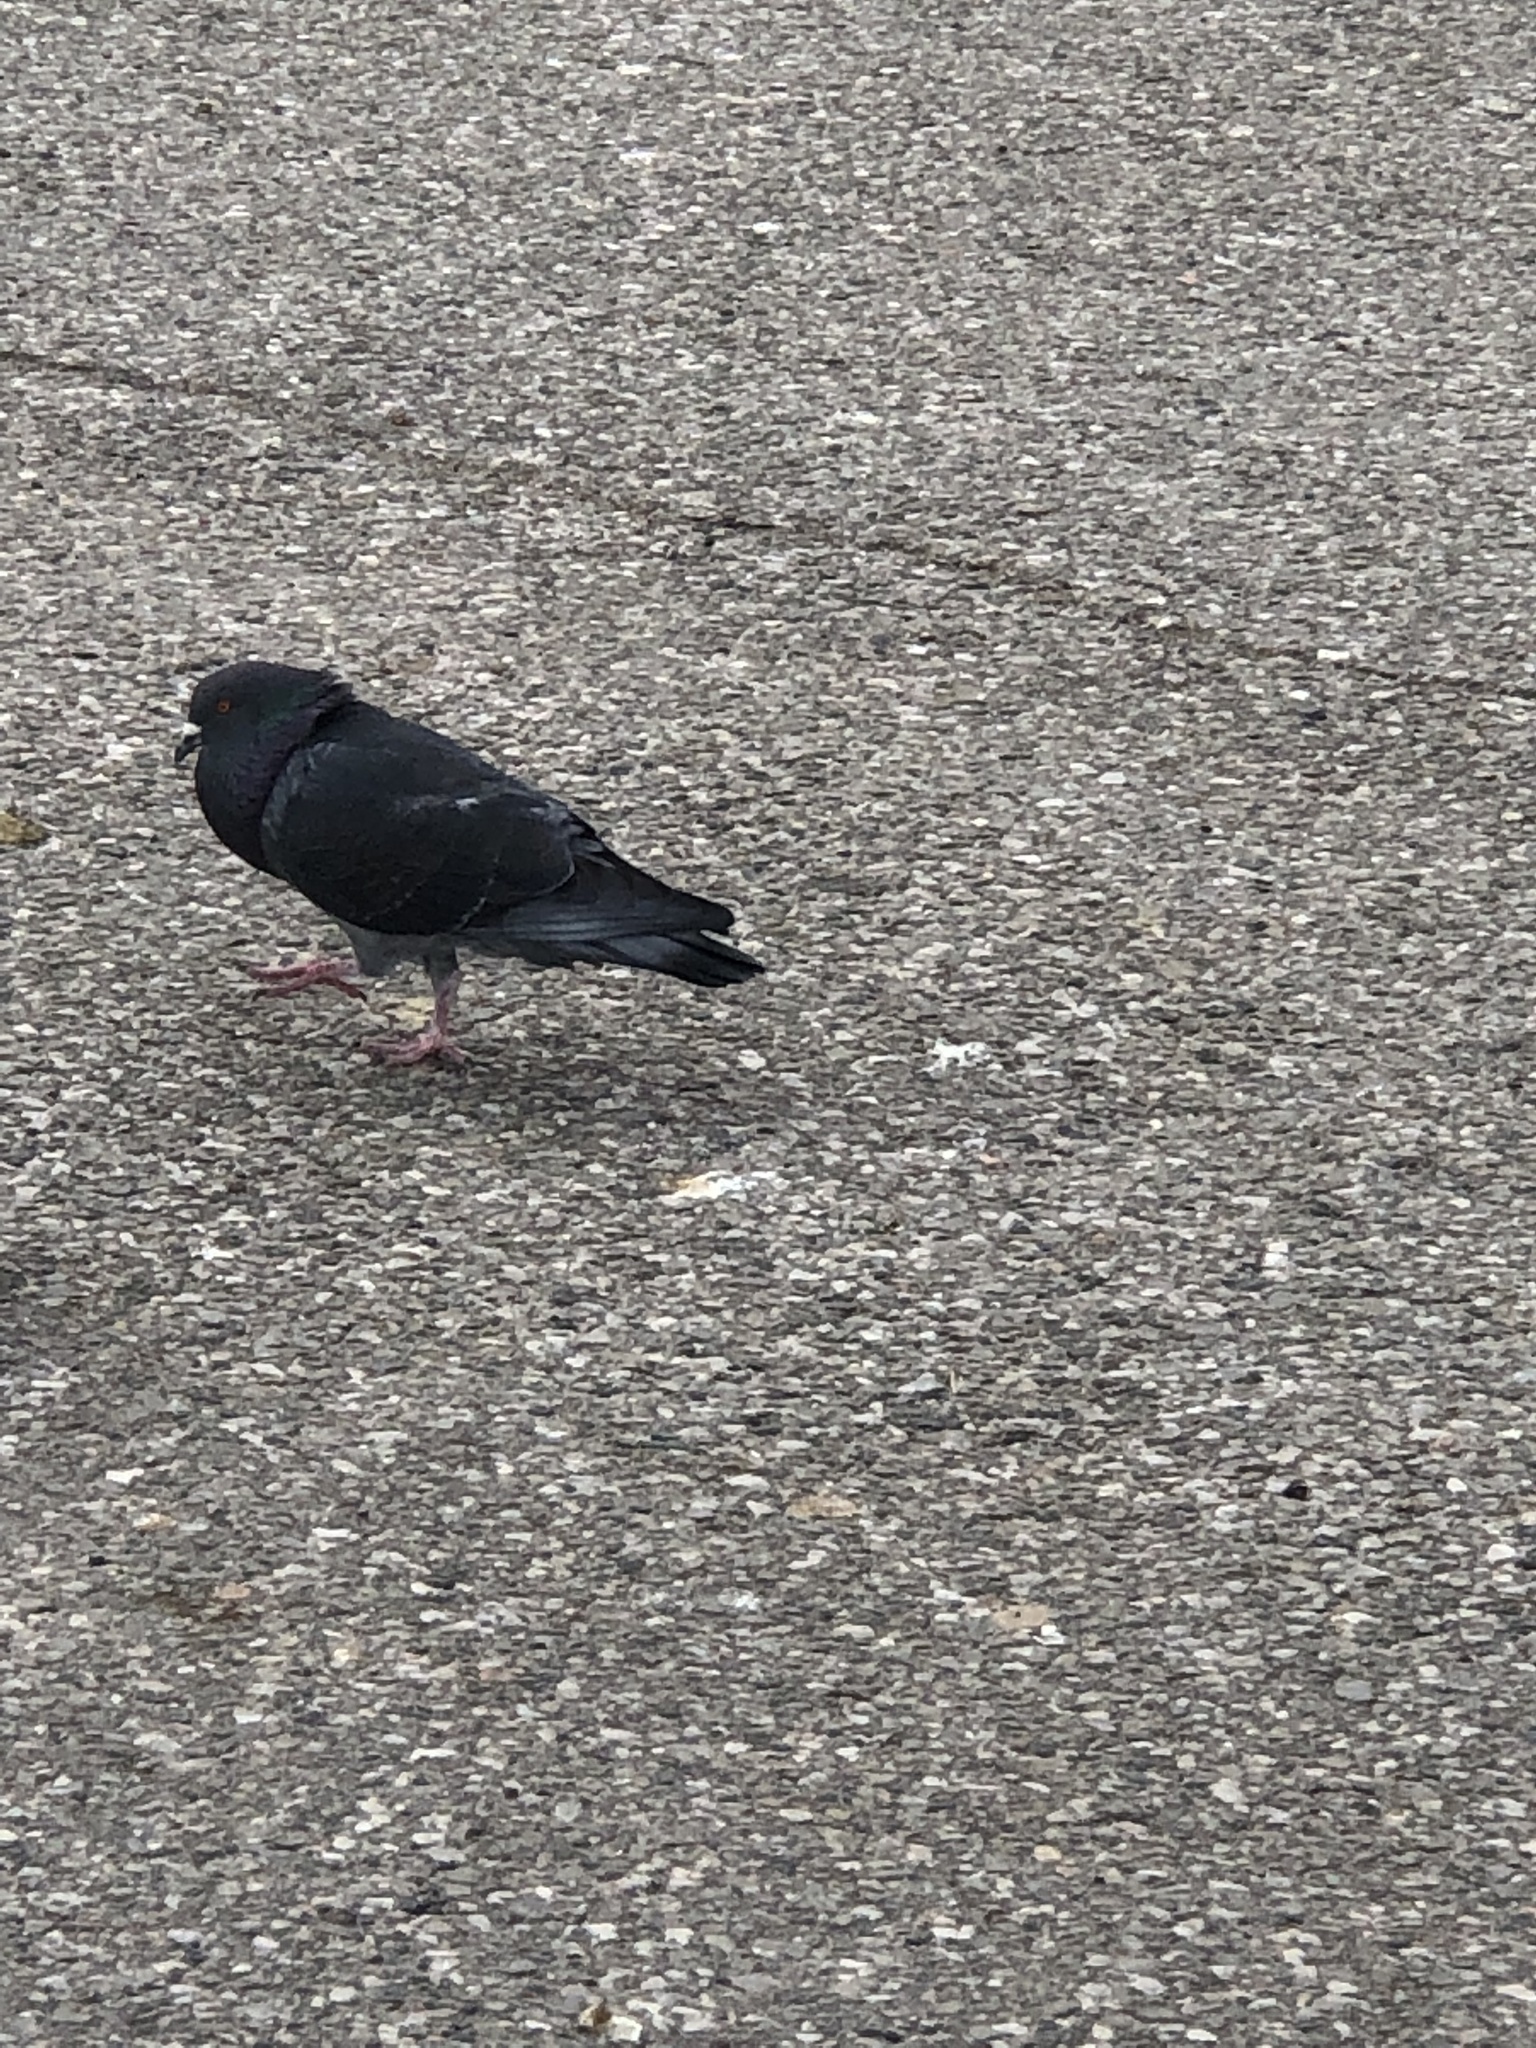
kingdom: Animalia
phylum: Chordata
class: Aves
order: Columbiformes
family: Columbidae
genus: Columba
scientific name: Columba livia
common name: Rock pigeon
